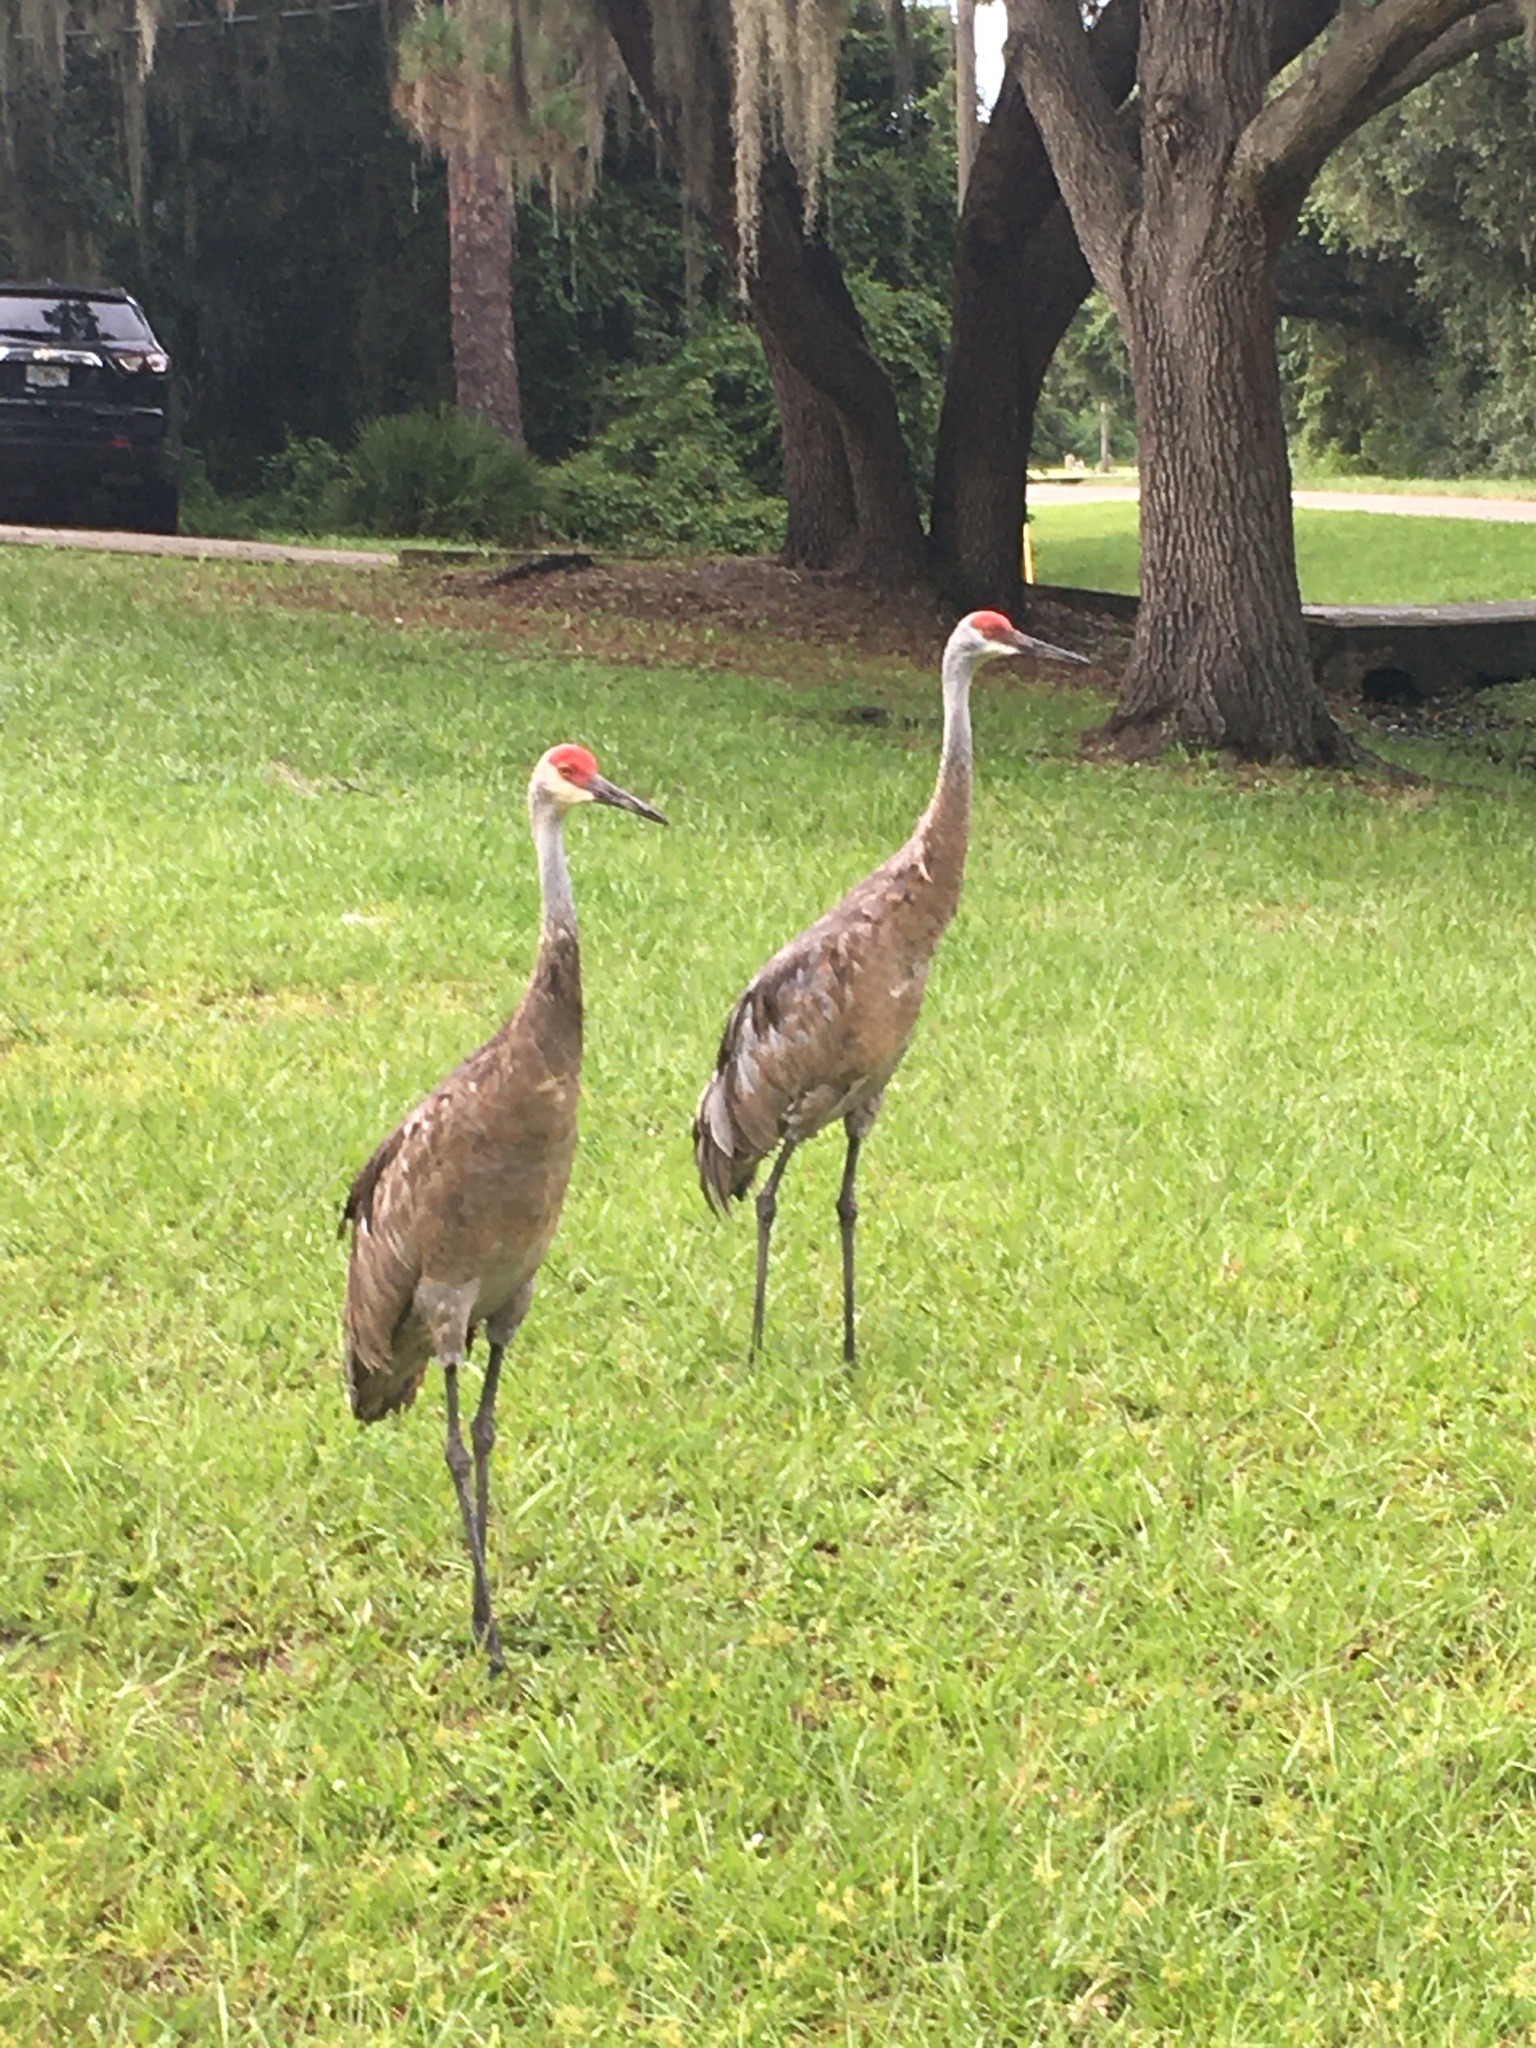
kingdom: Animalia
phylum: Chordata
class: Aves
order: Gruiformes
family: Gruidae
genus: Grus
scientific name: Grus canadensis
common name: Sandhill crane
